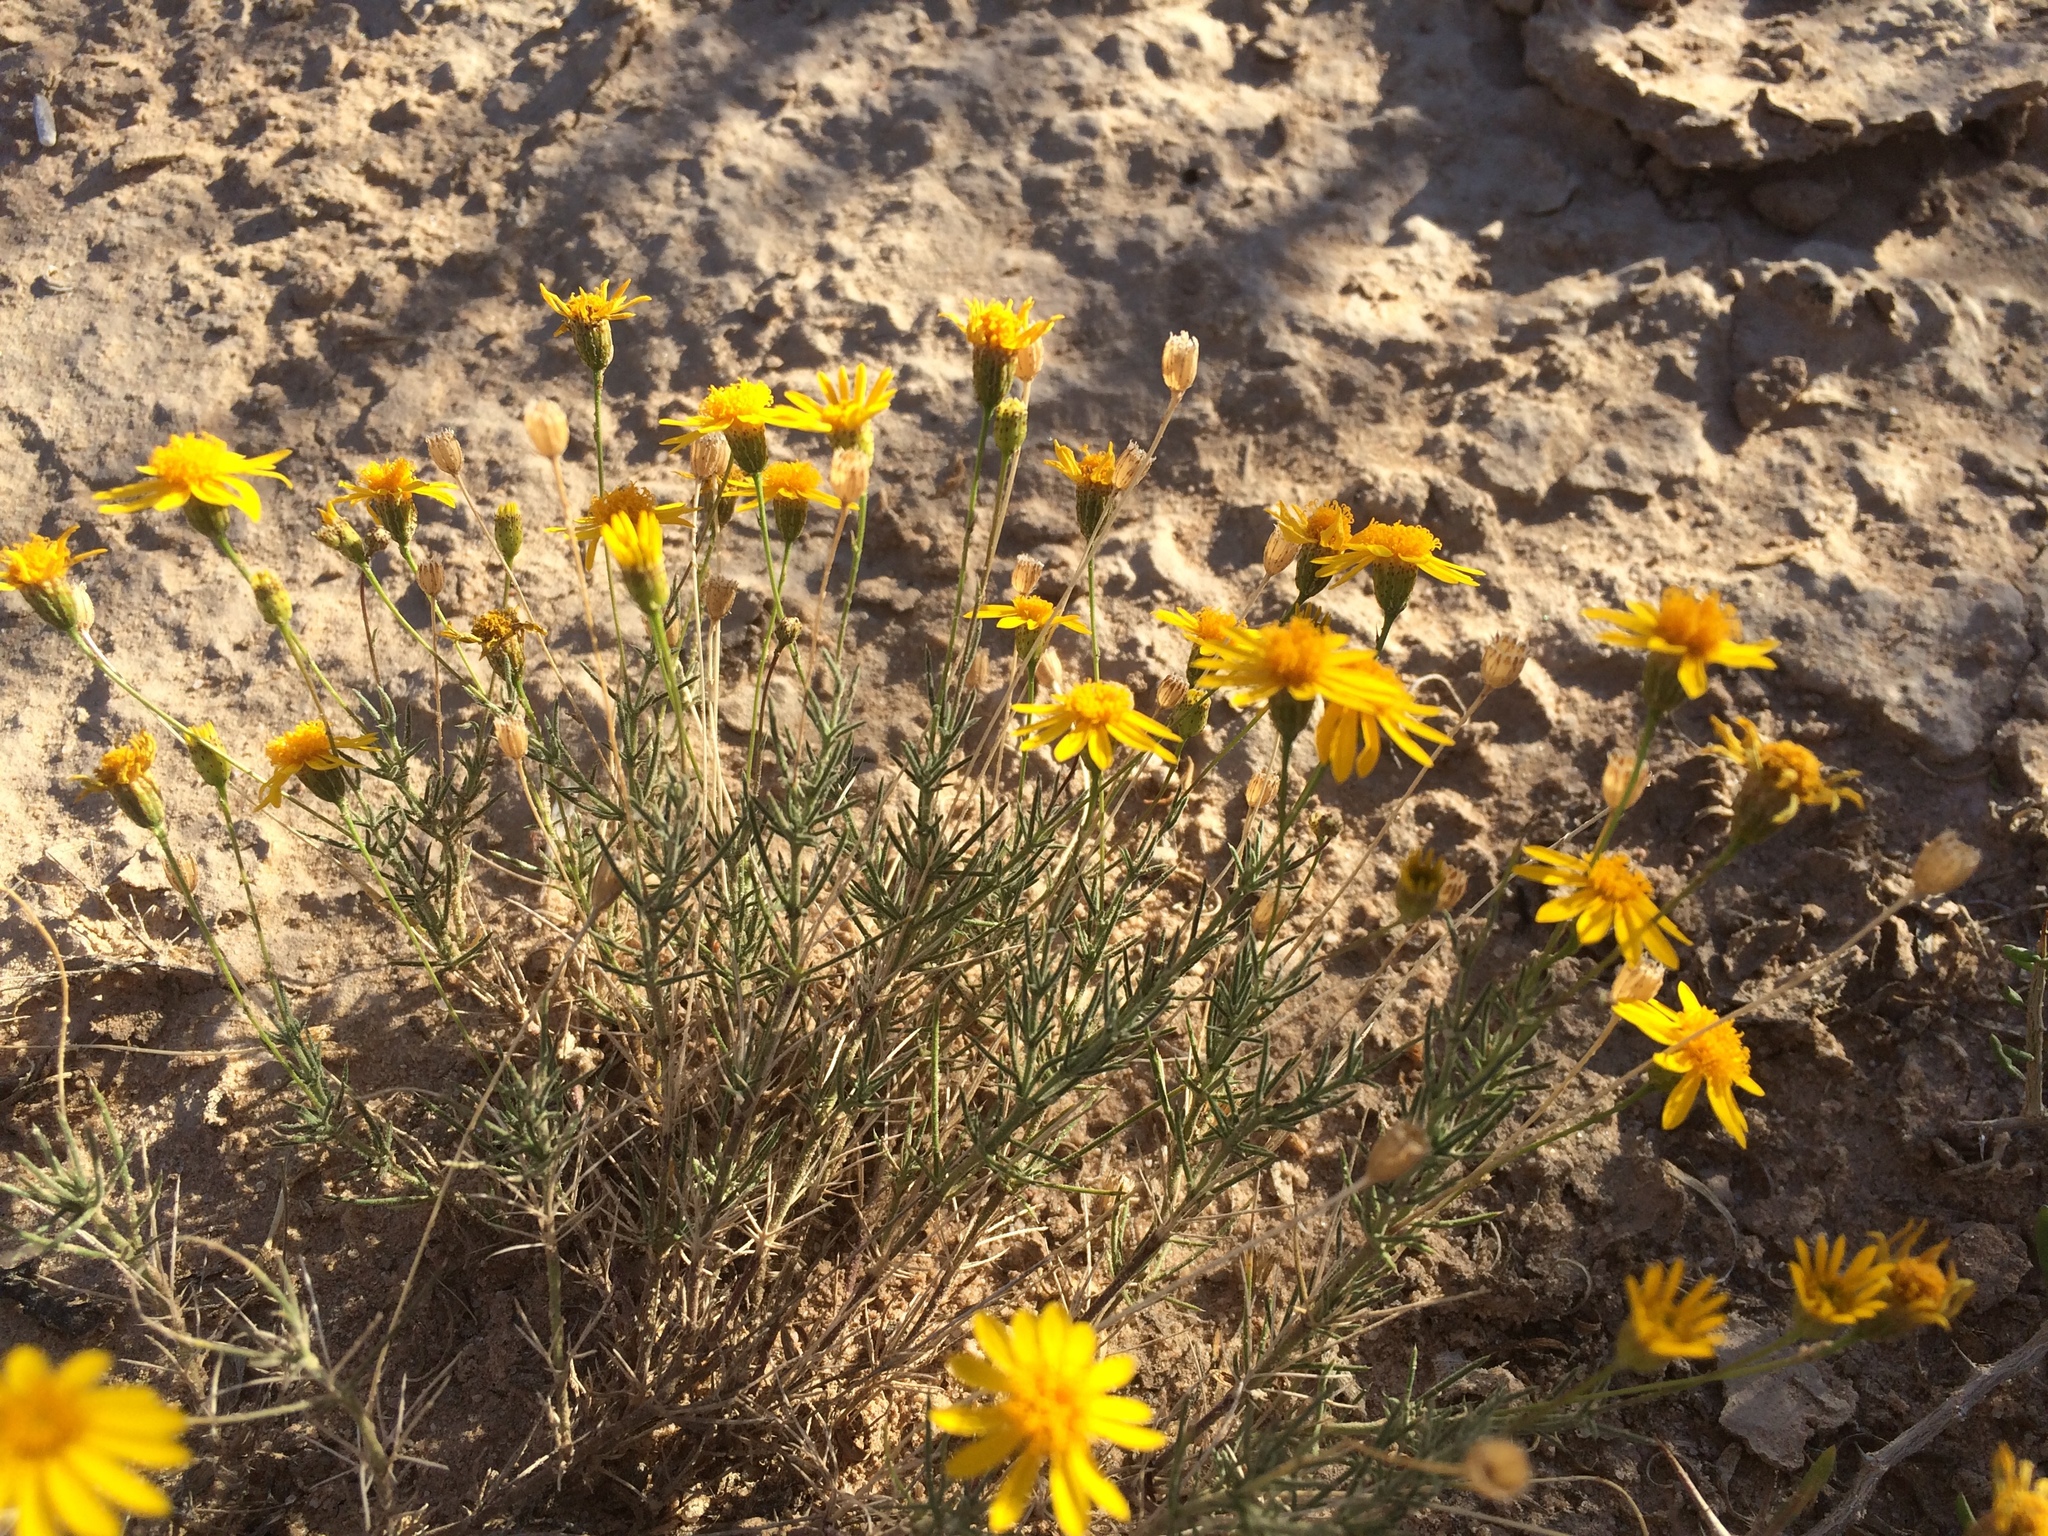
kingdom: Plantae
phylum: Tracheophyta
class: Magnoliopsida
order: Asterales
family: Asteraceae
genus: Thymophylla
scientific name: Thymophylla pentachaeta
